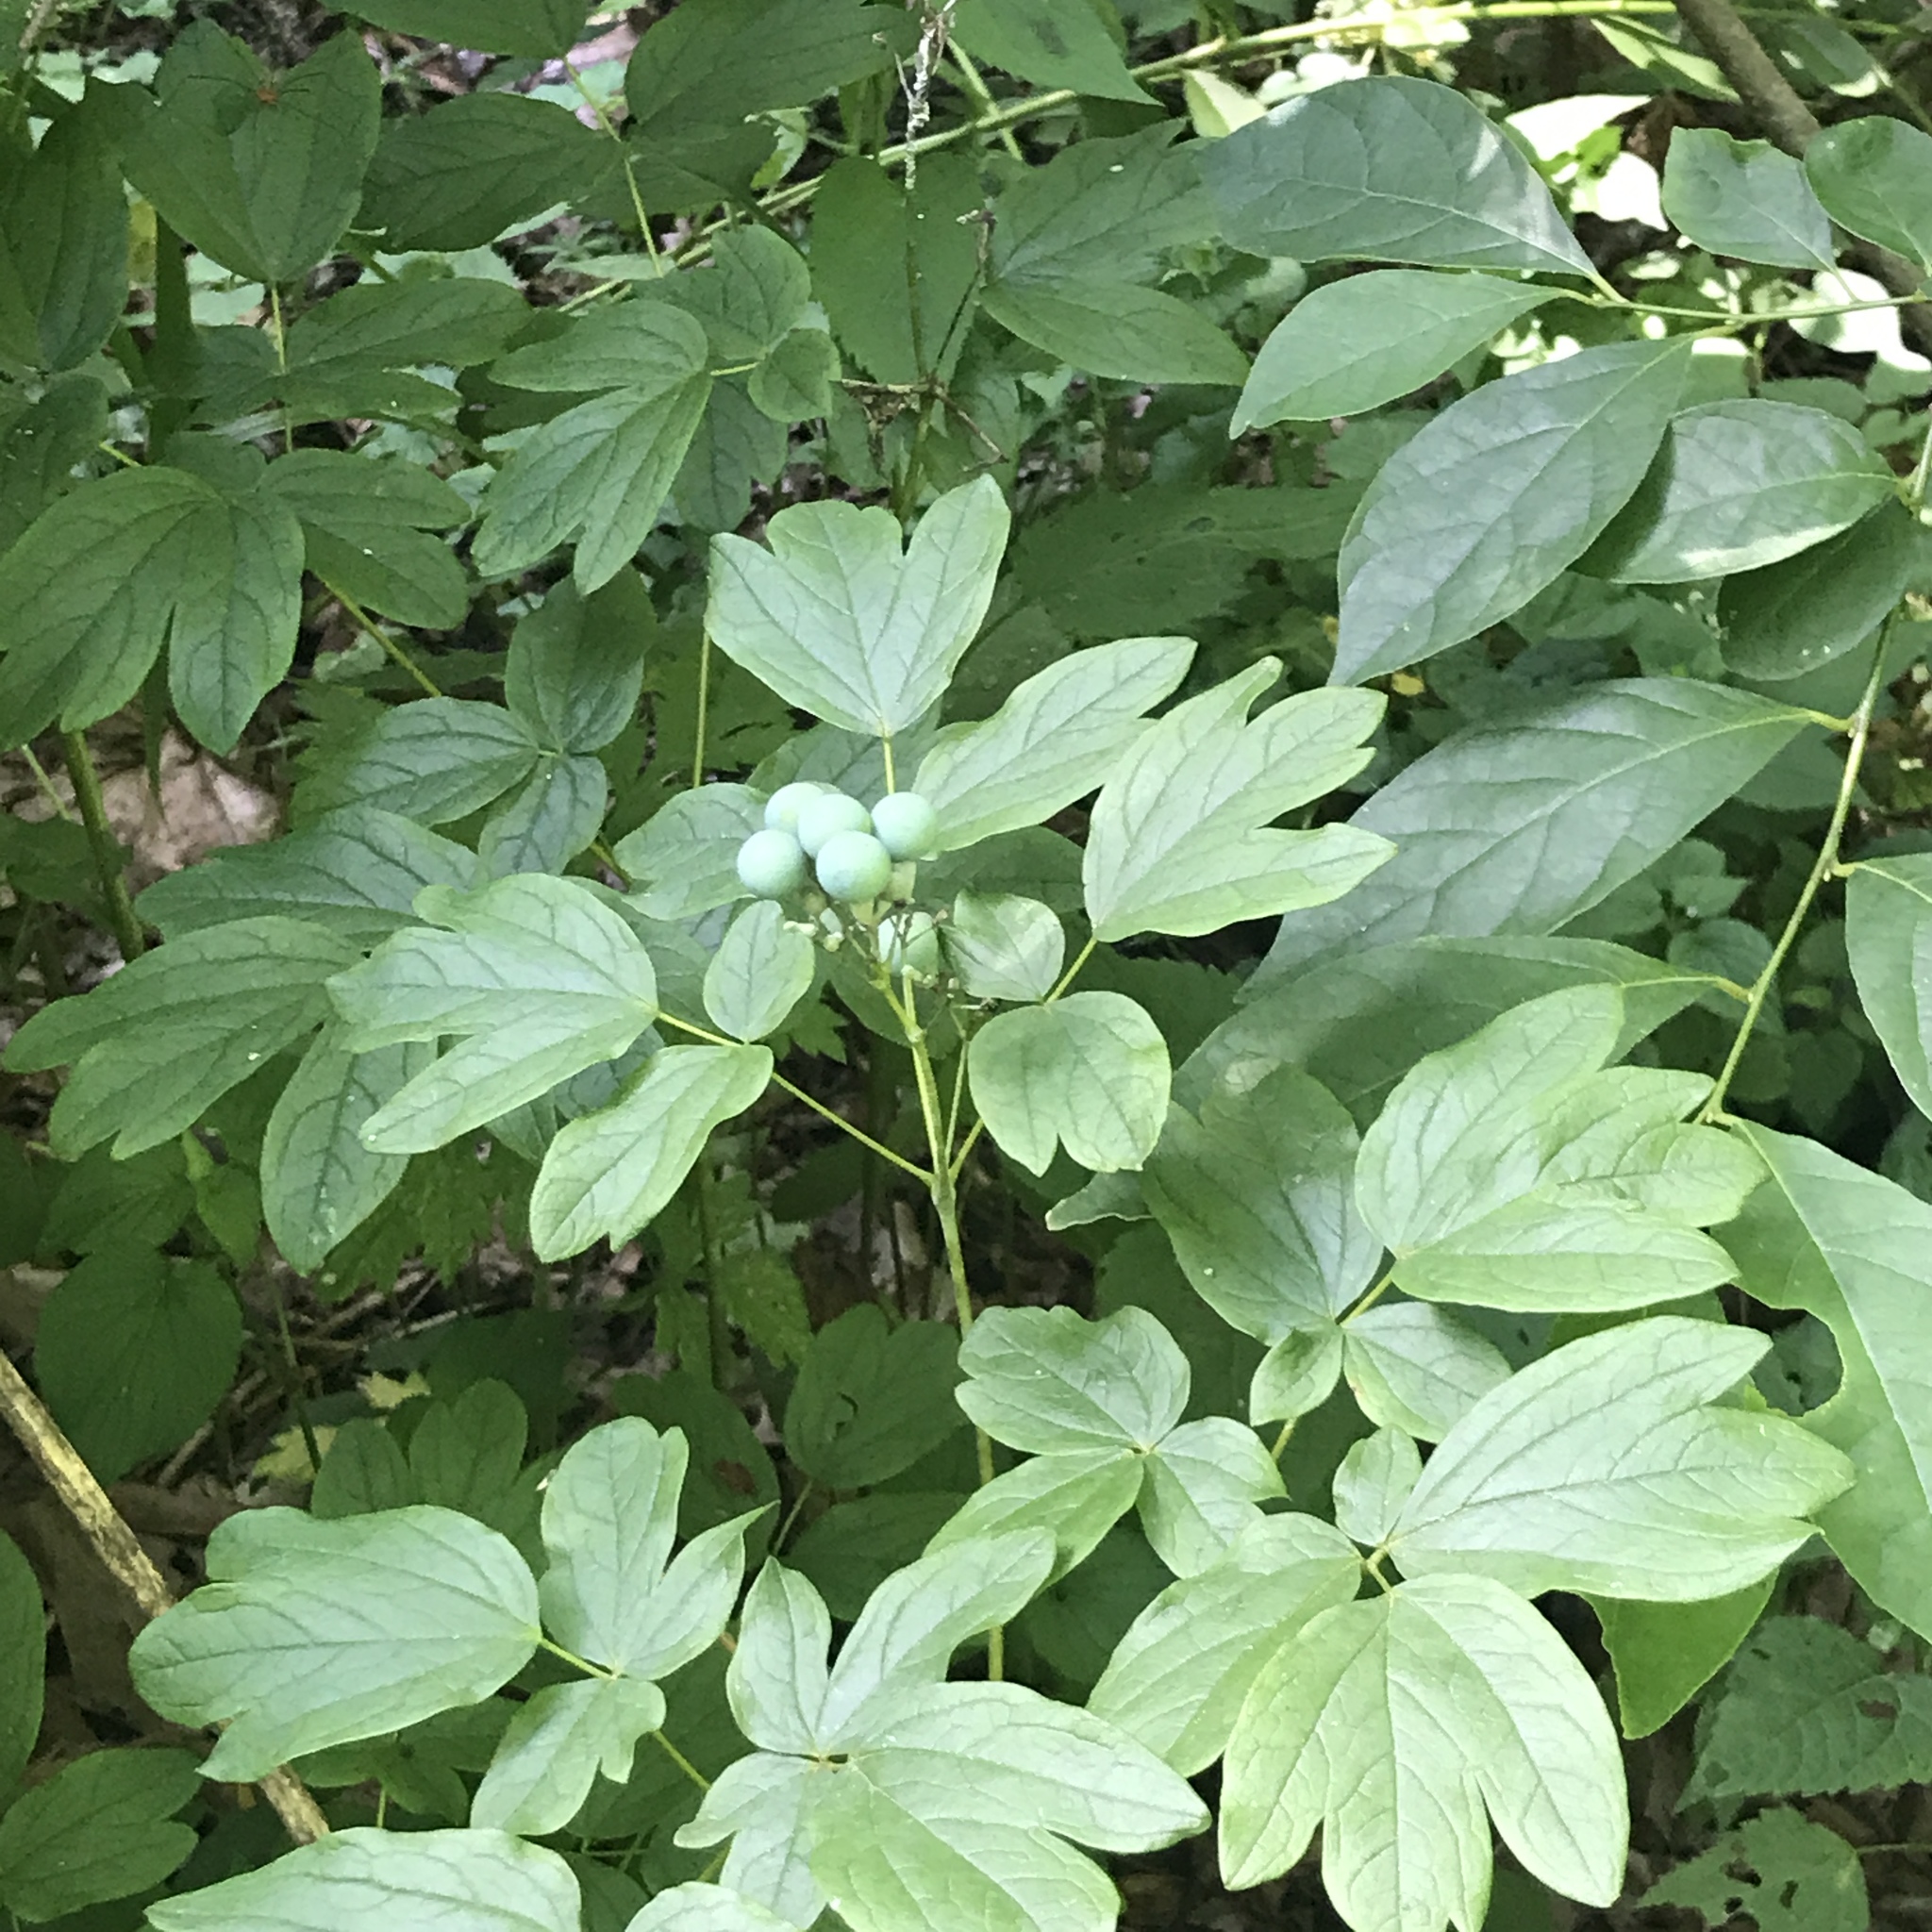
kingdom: Plantae
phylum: Tracheophyta
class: Magnoliopsida
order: Ranunculales
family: Berberidaceae
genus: Caulophyllum
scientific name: Caulophyllum thalictroides
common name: Blue cohosh
